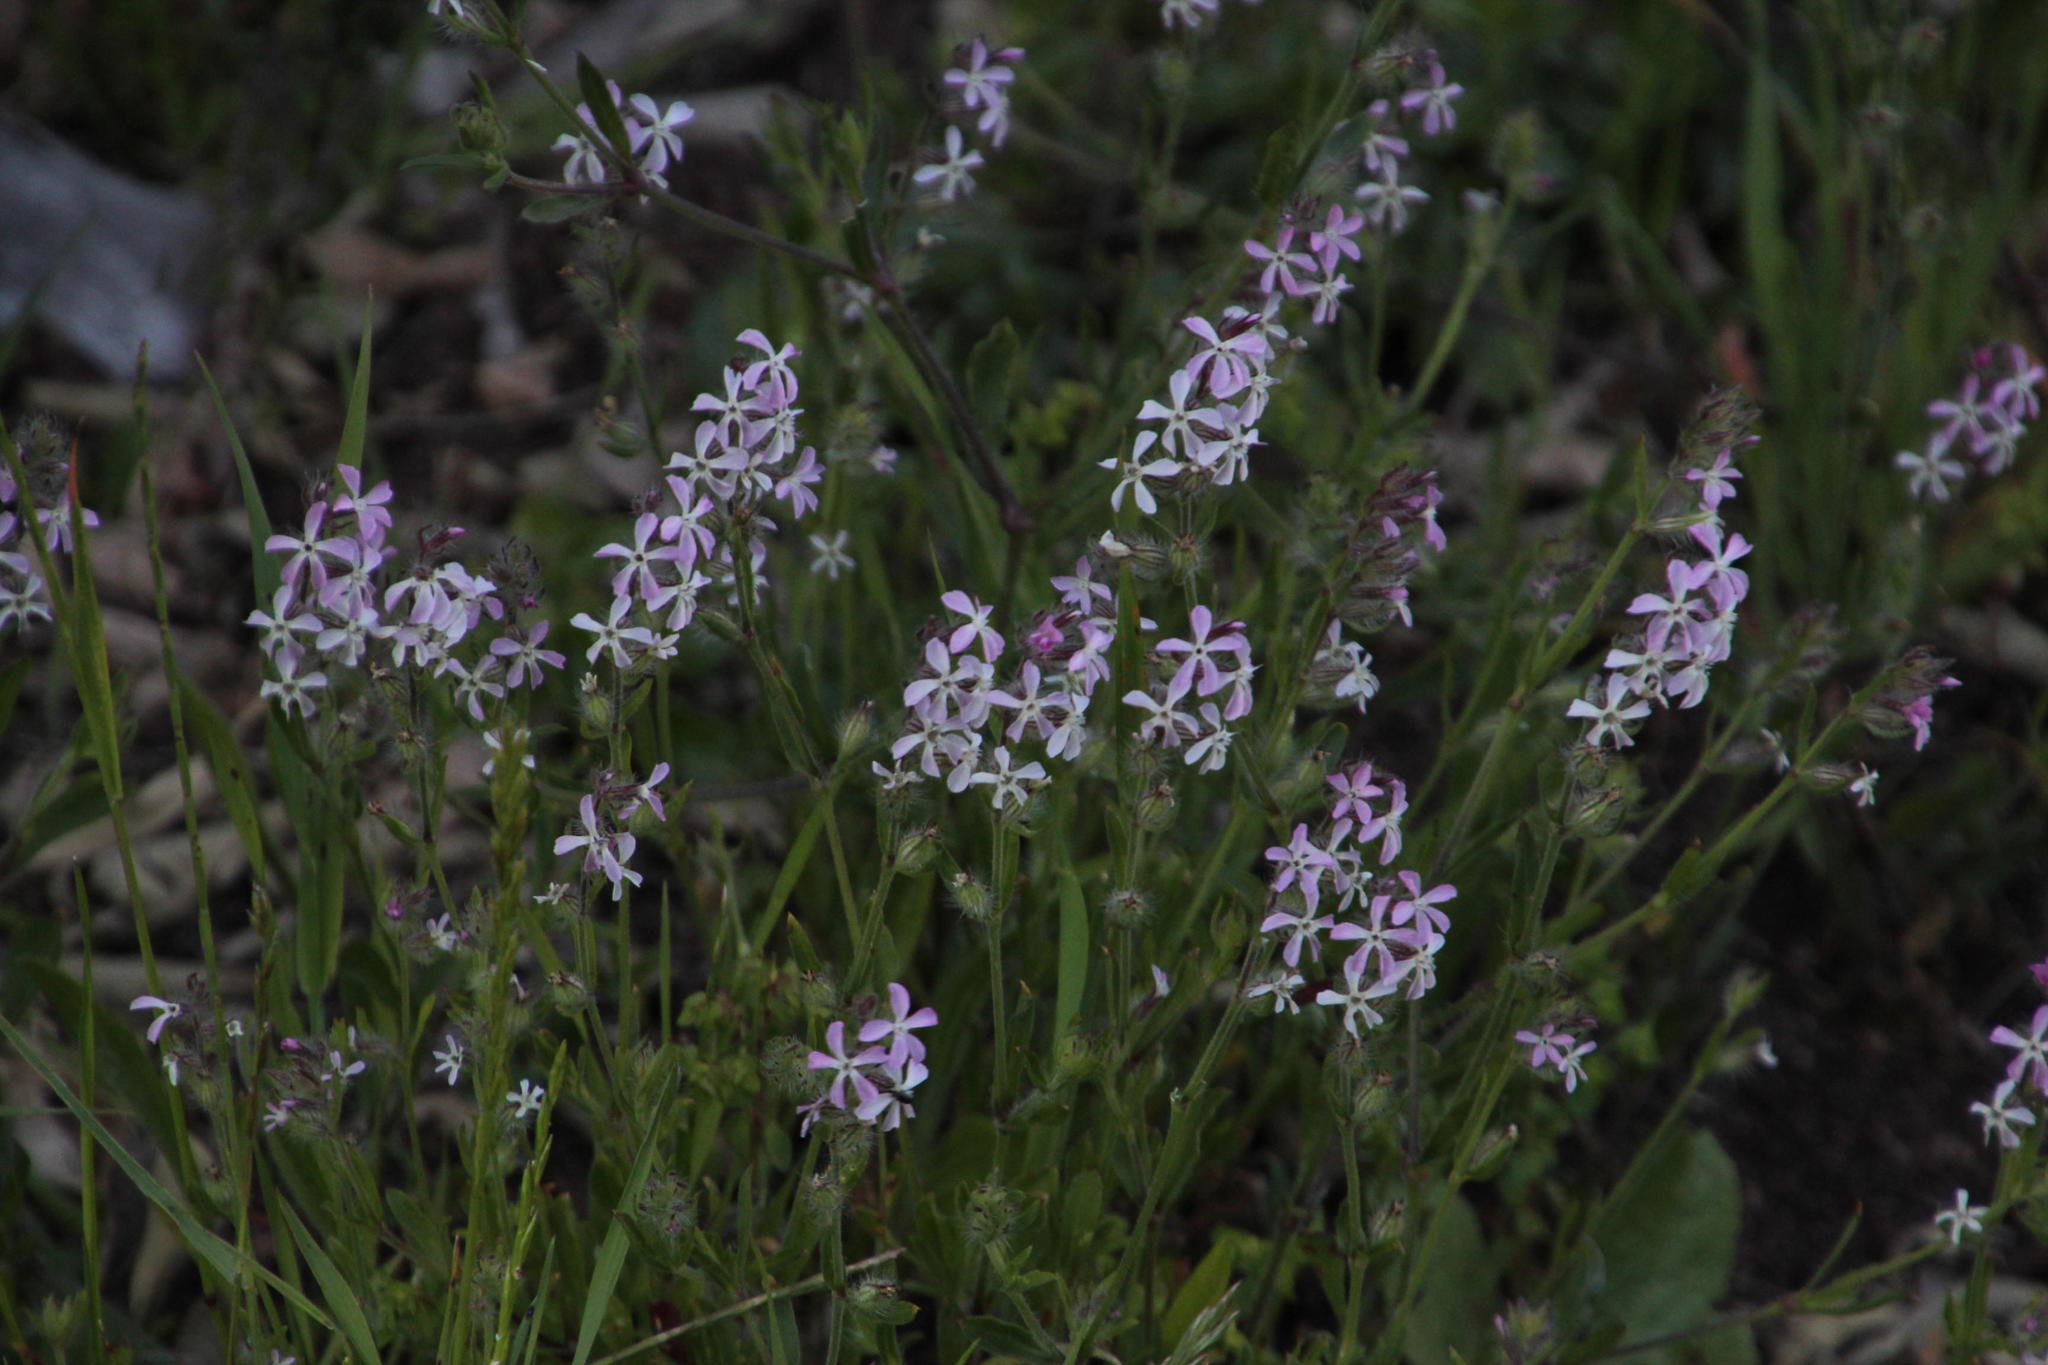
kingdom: Plantae
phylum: Tracheophyta
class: Magnoliopsida
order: Caryophyllales
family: Caryophyllaceae
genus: Silene
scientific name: Silene gallica
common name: Small-flowered catchfly
